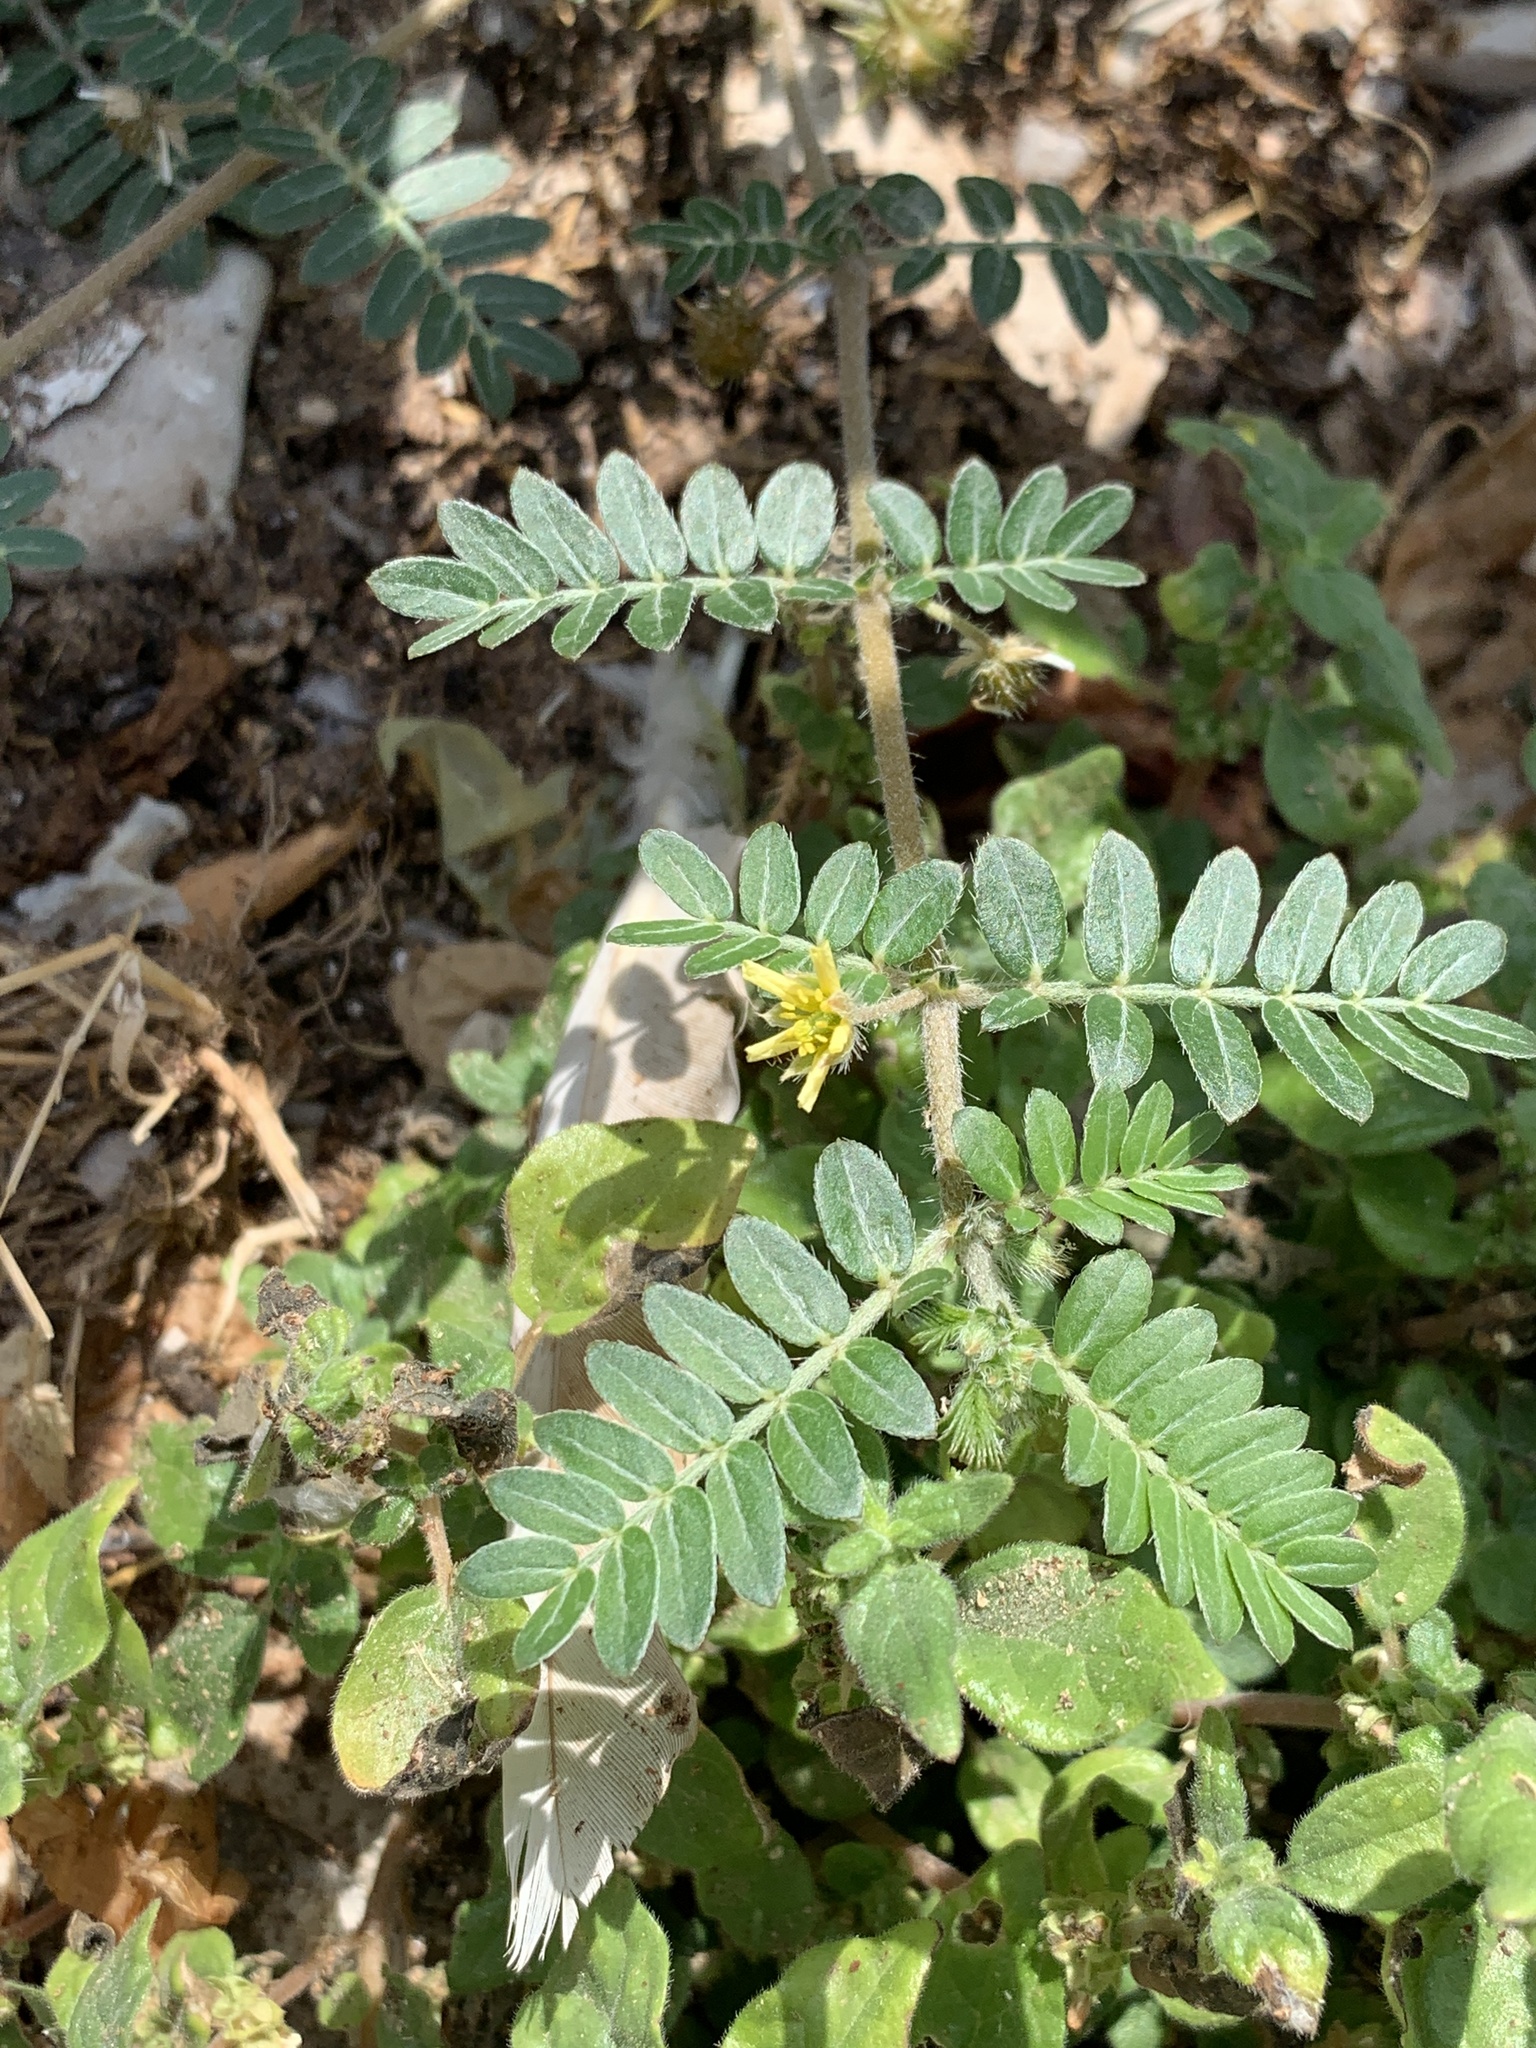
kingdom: Plantae
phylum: Tracheophyta
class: Magnoliopsida
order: Zygophyllales
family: Zygophyllaceae
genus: Tribulus
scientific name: Tribulus terrestris
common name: Puncturevine
